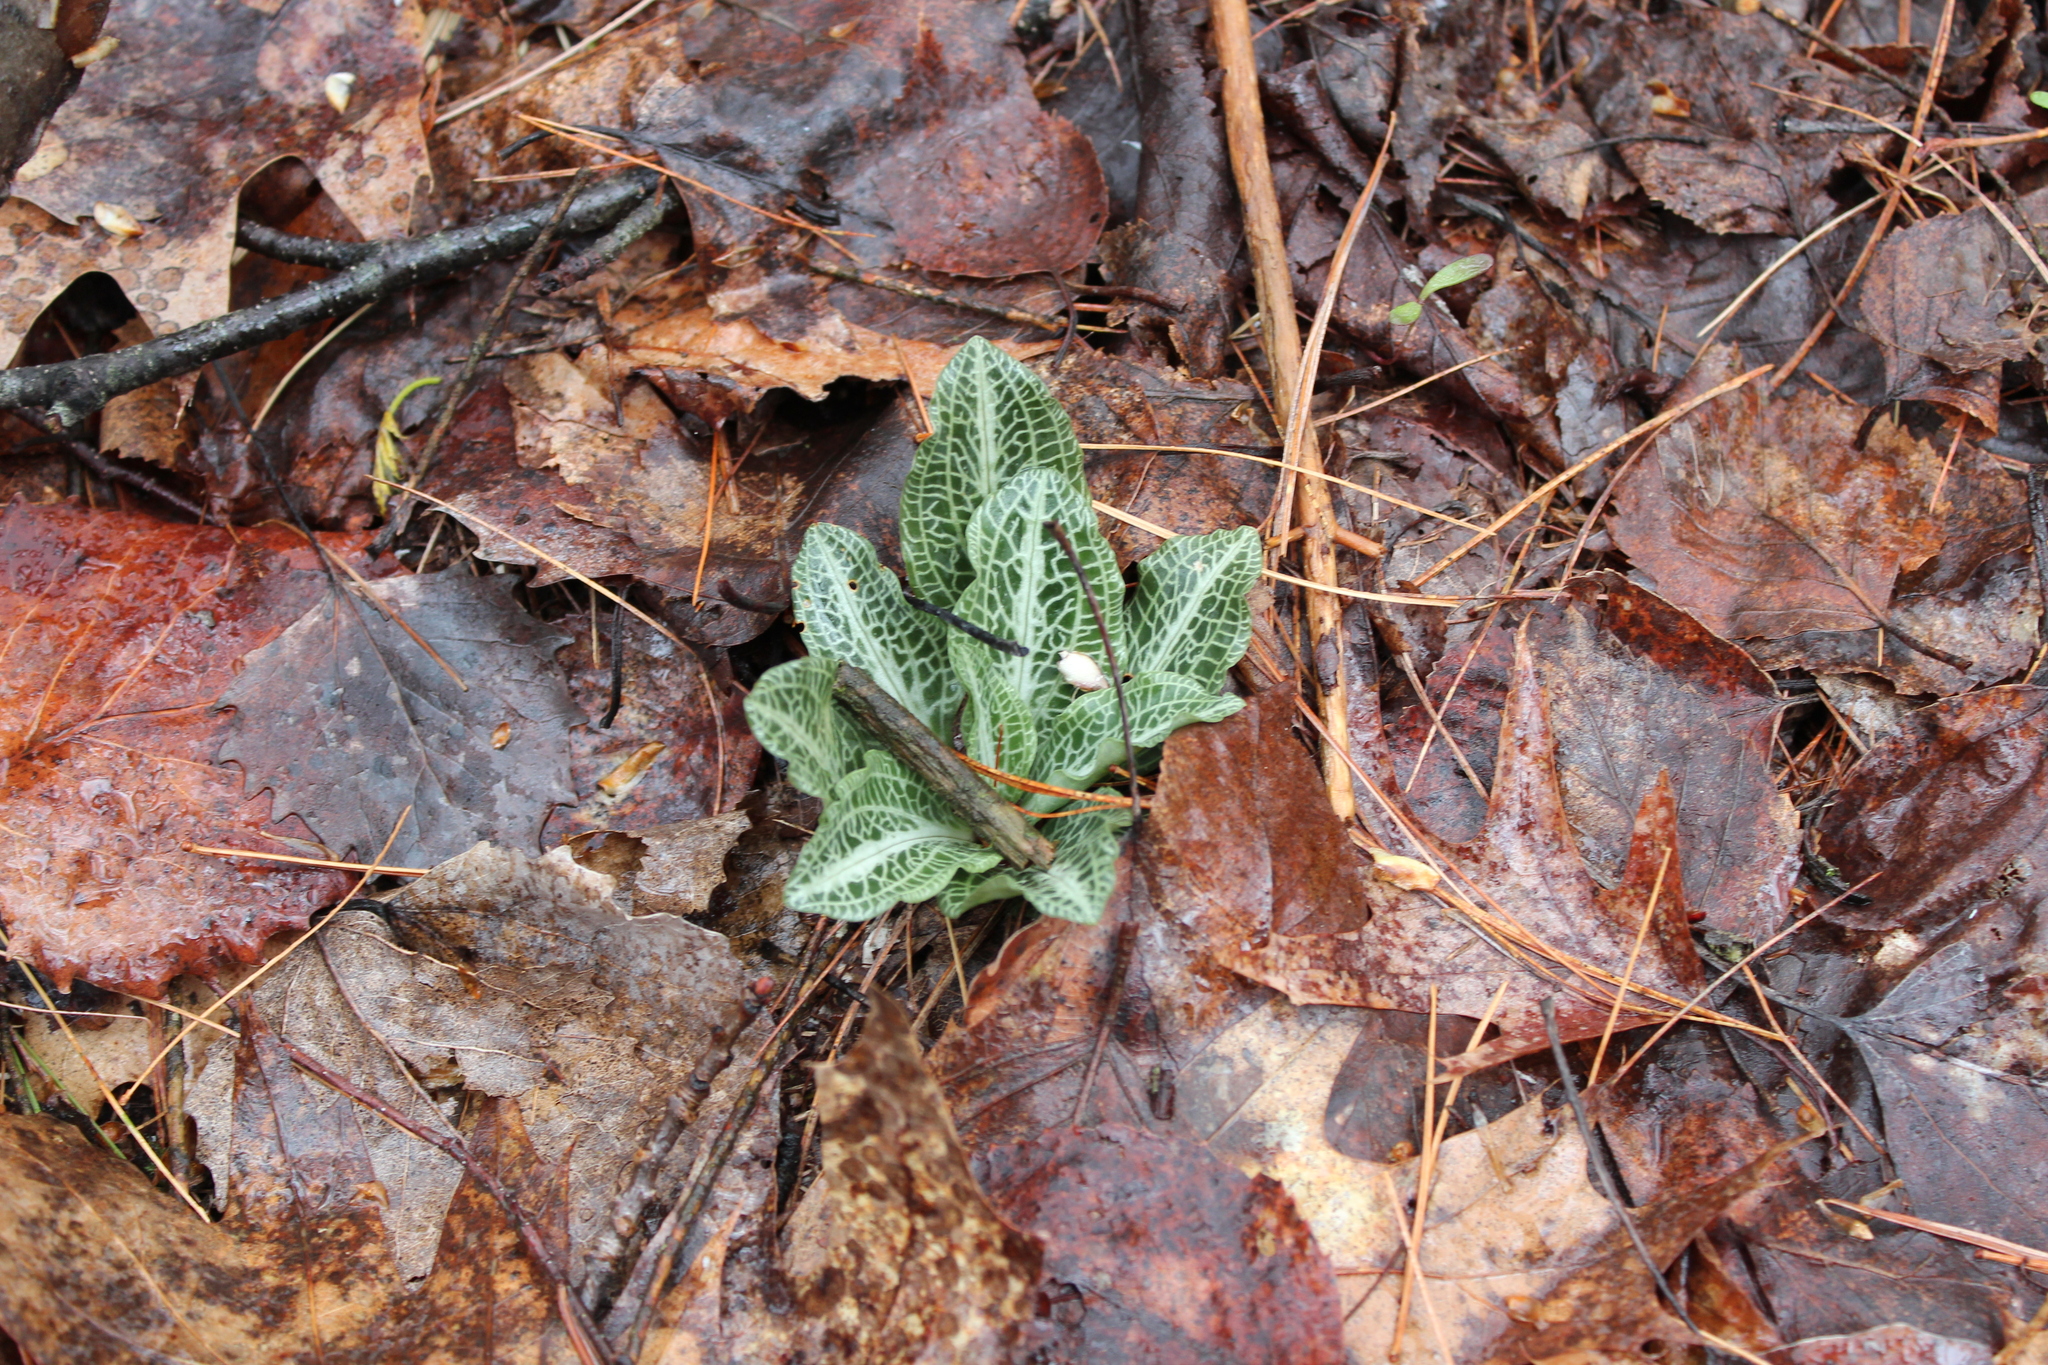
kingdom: Plantae
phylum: Tracheophyta
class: Liliopsida
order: Asparagales
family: Orchidaceae
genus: Goodyera
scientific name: Goodyera pubescens
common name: Downy rattlesnake-plantain
